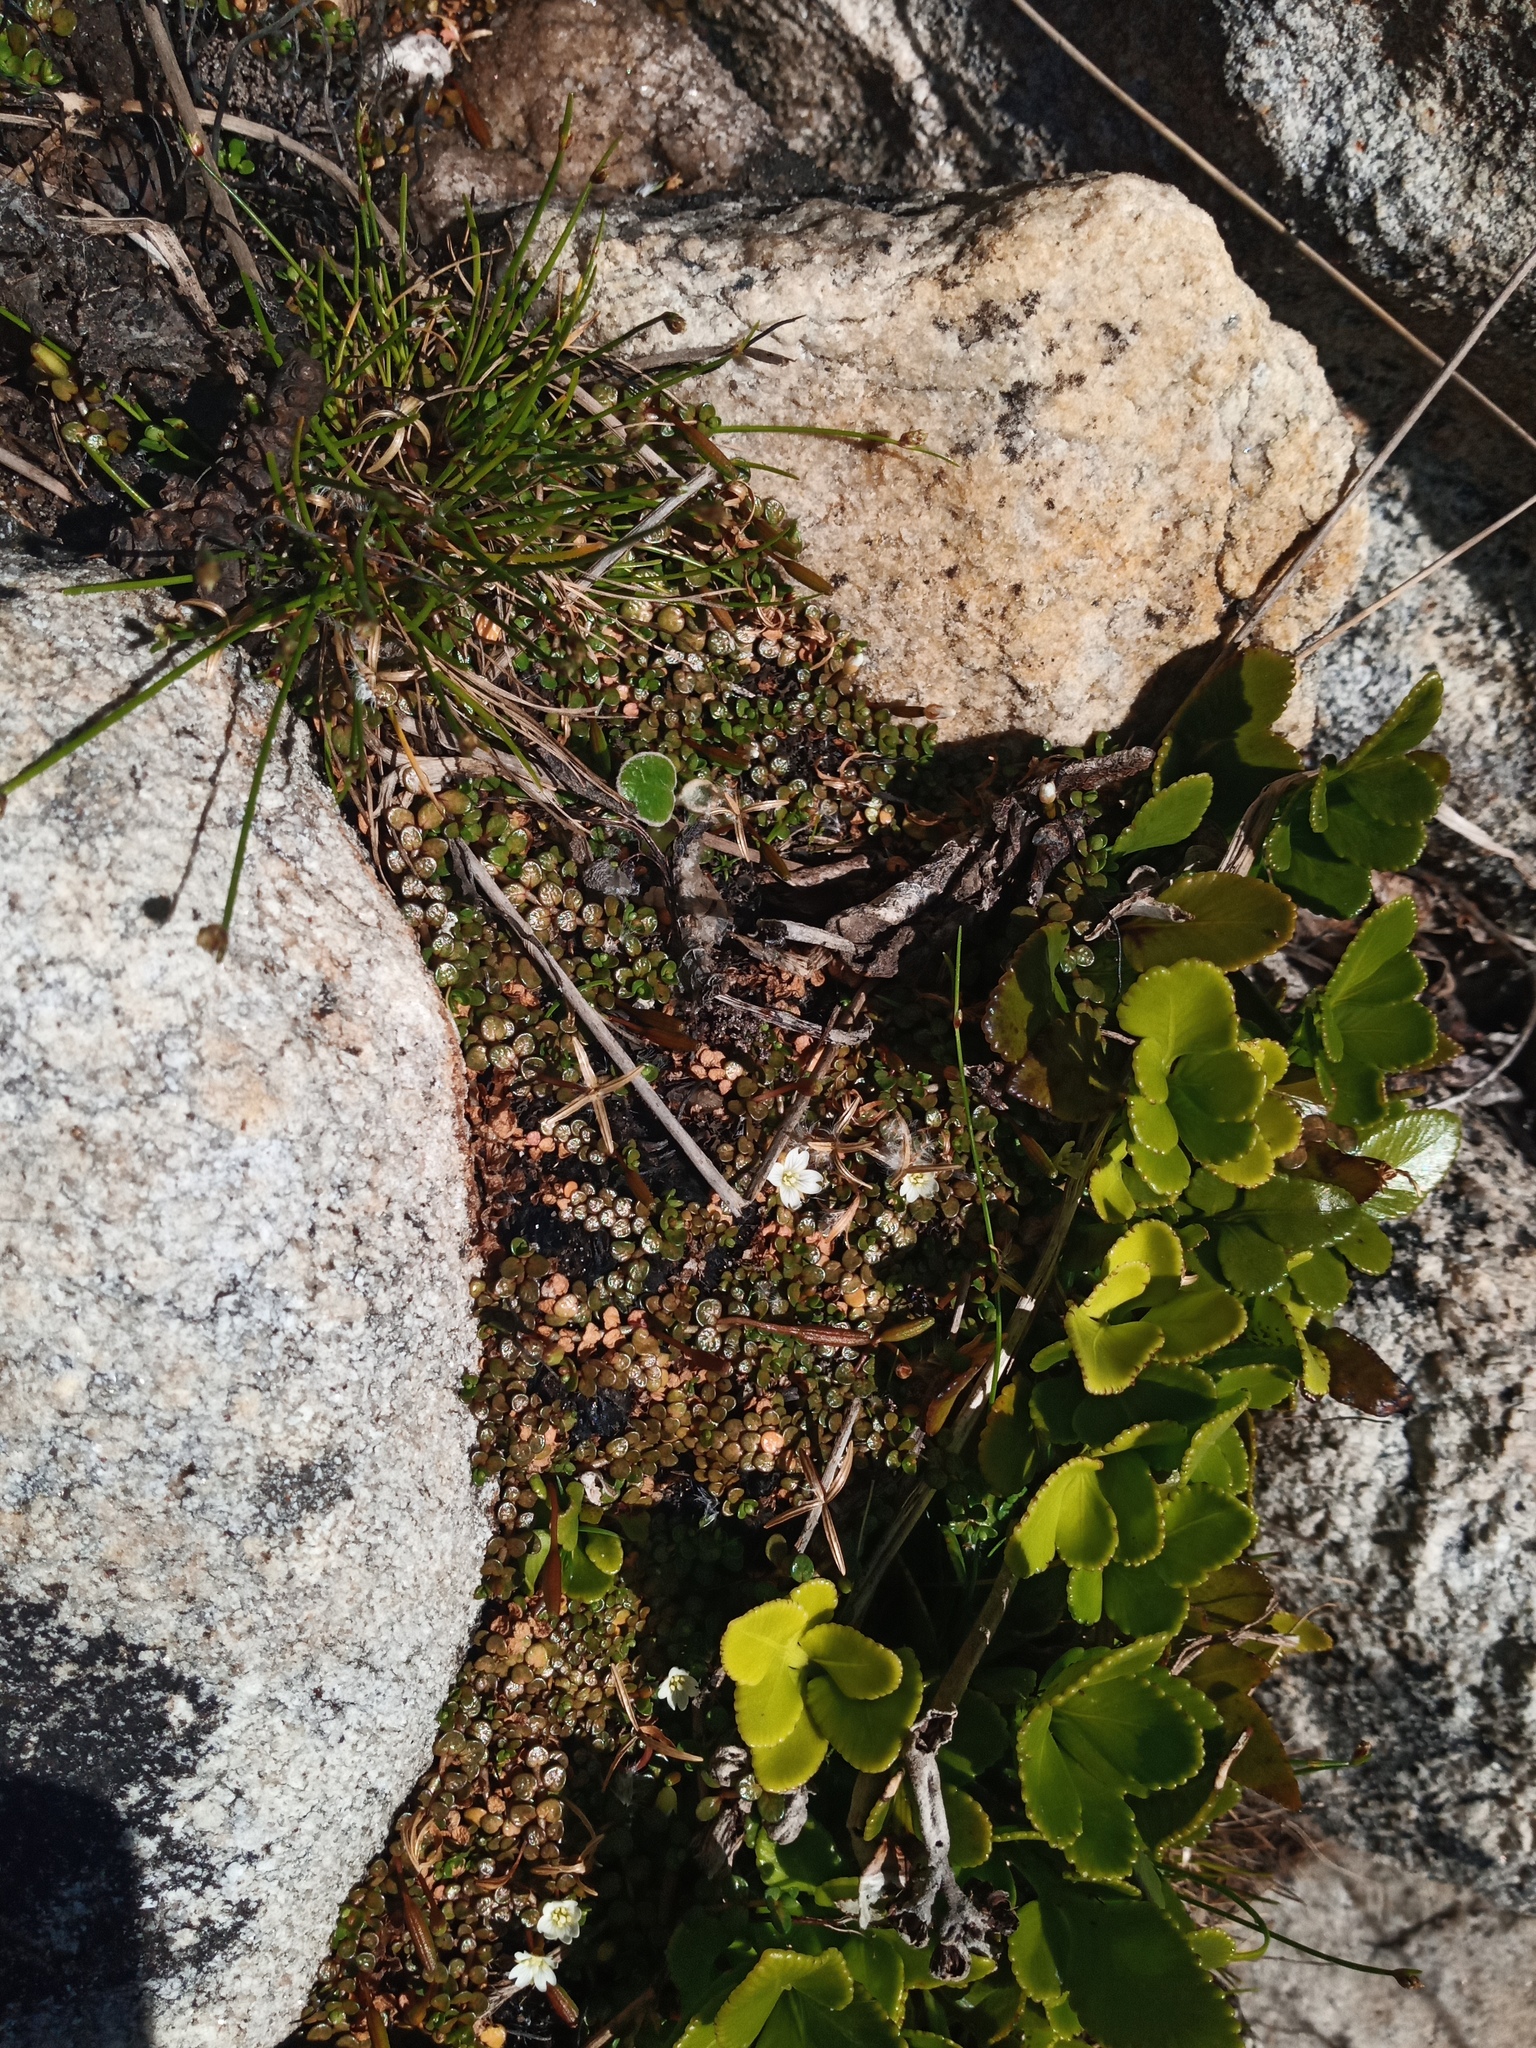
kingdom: Plantae
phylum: Tracheophyta
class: Magnoliopsida
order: Myrtales
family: Onagraceae
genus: Epilobium
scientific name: Epilobium komarovianum
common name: Bronzy willowherb
